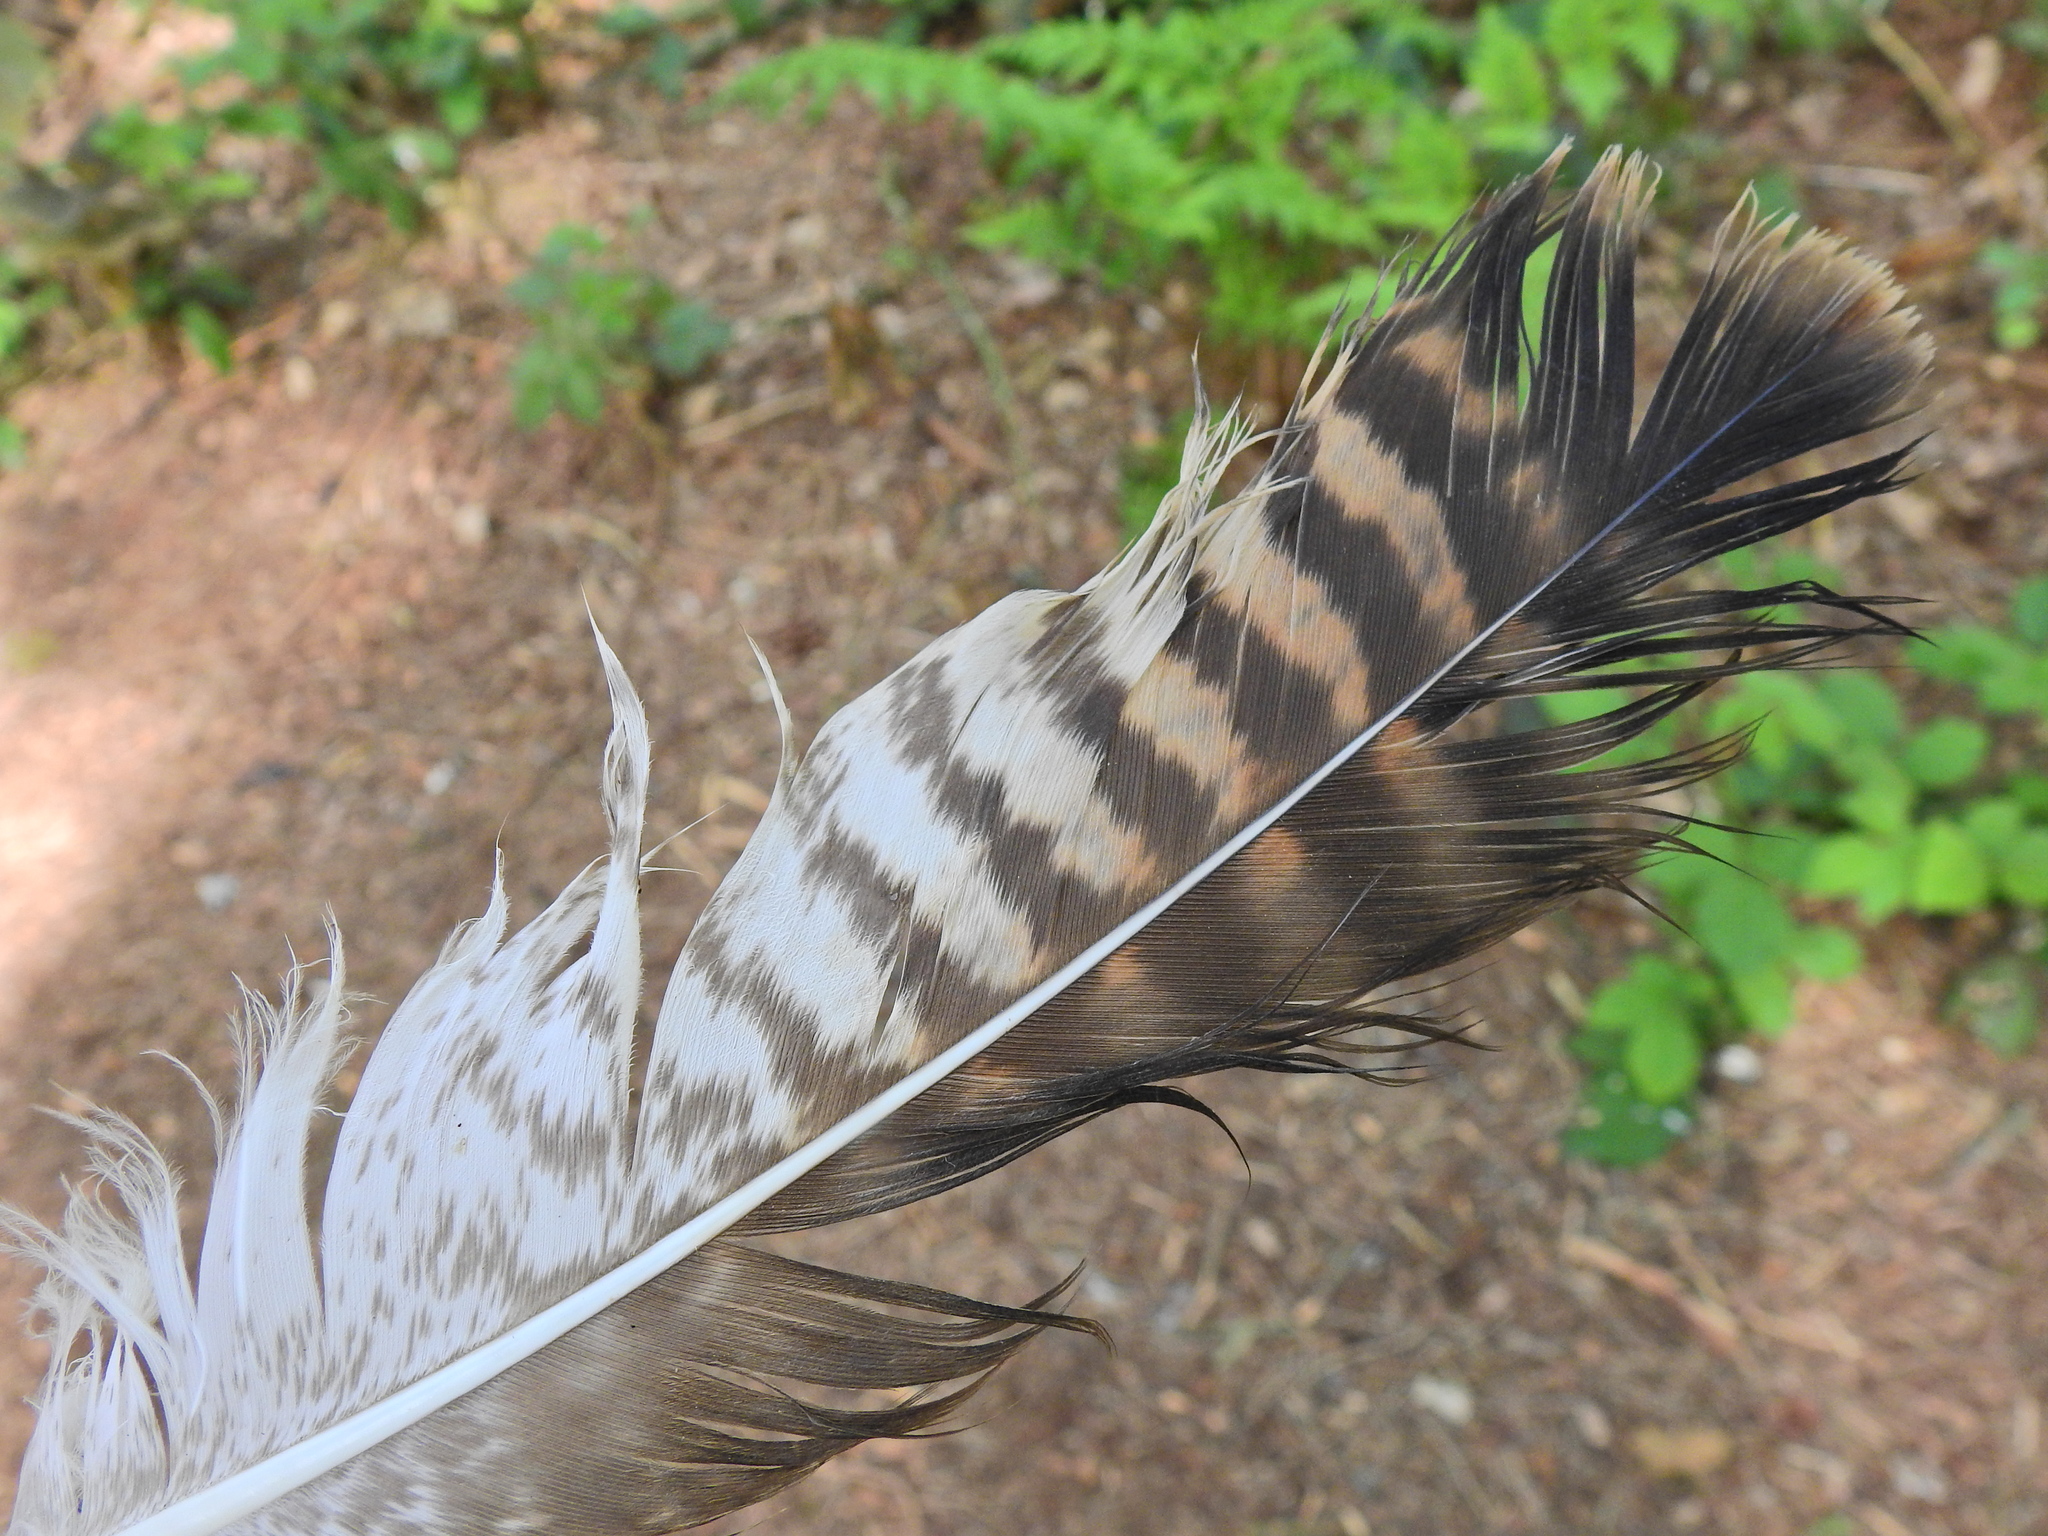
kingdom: Animalia
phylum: Chordata
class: Aves
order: Accipitriformes
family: Accipitridae
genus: Buteo
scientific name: Buteo buteo
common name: Common buzzard
